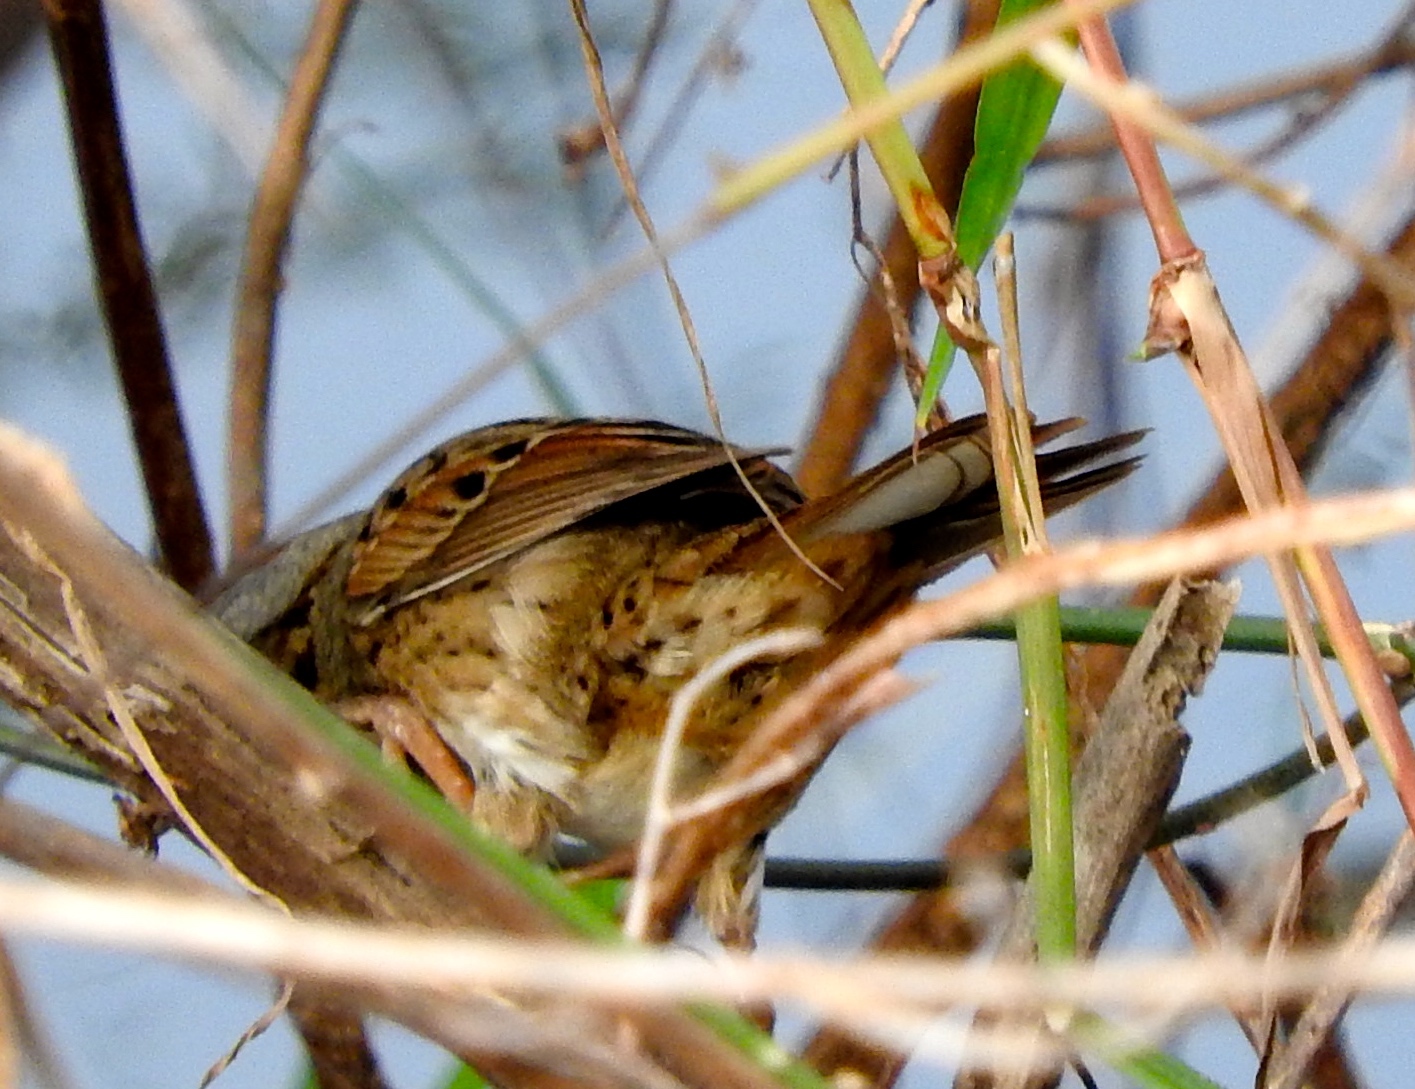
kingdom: Animalia
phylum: Chordata
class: Aves
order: Passeriformes
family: Passerellidae
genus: Melospiza
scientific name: Melospiza lincolnii
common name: Lincoln's sparrow
